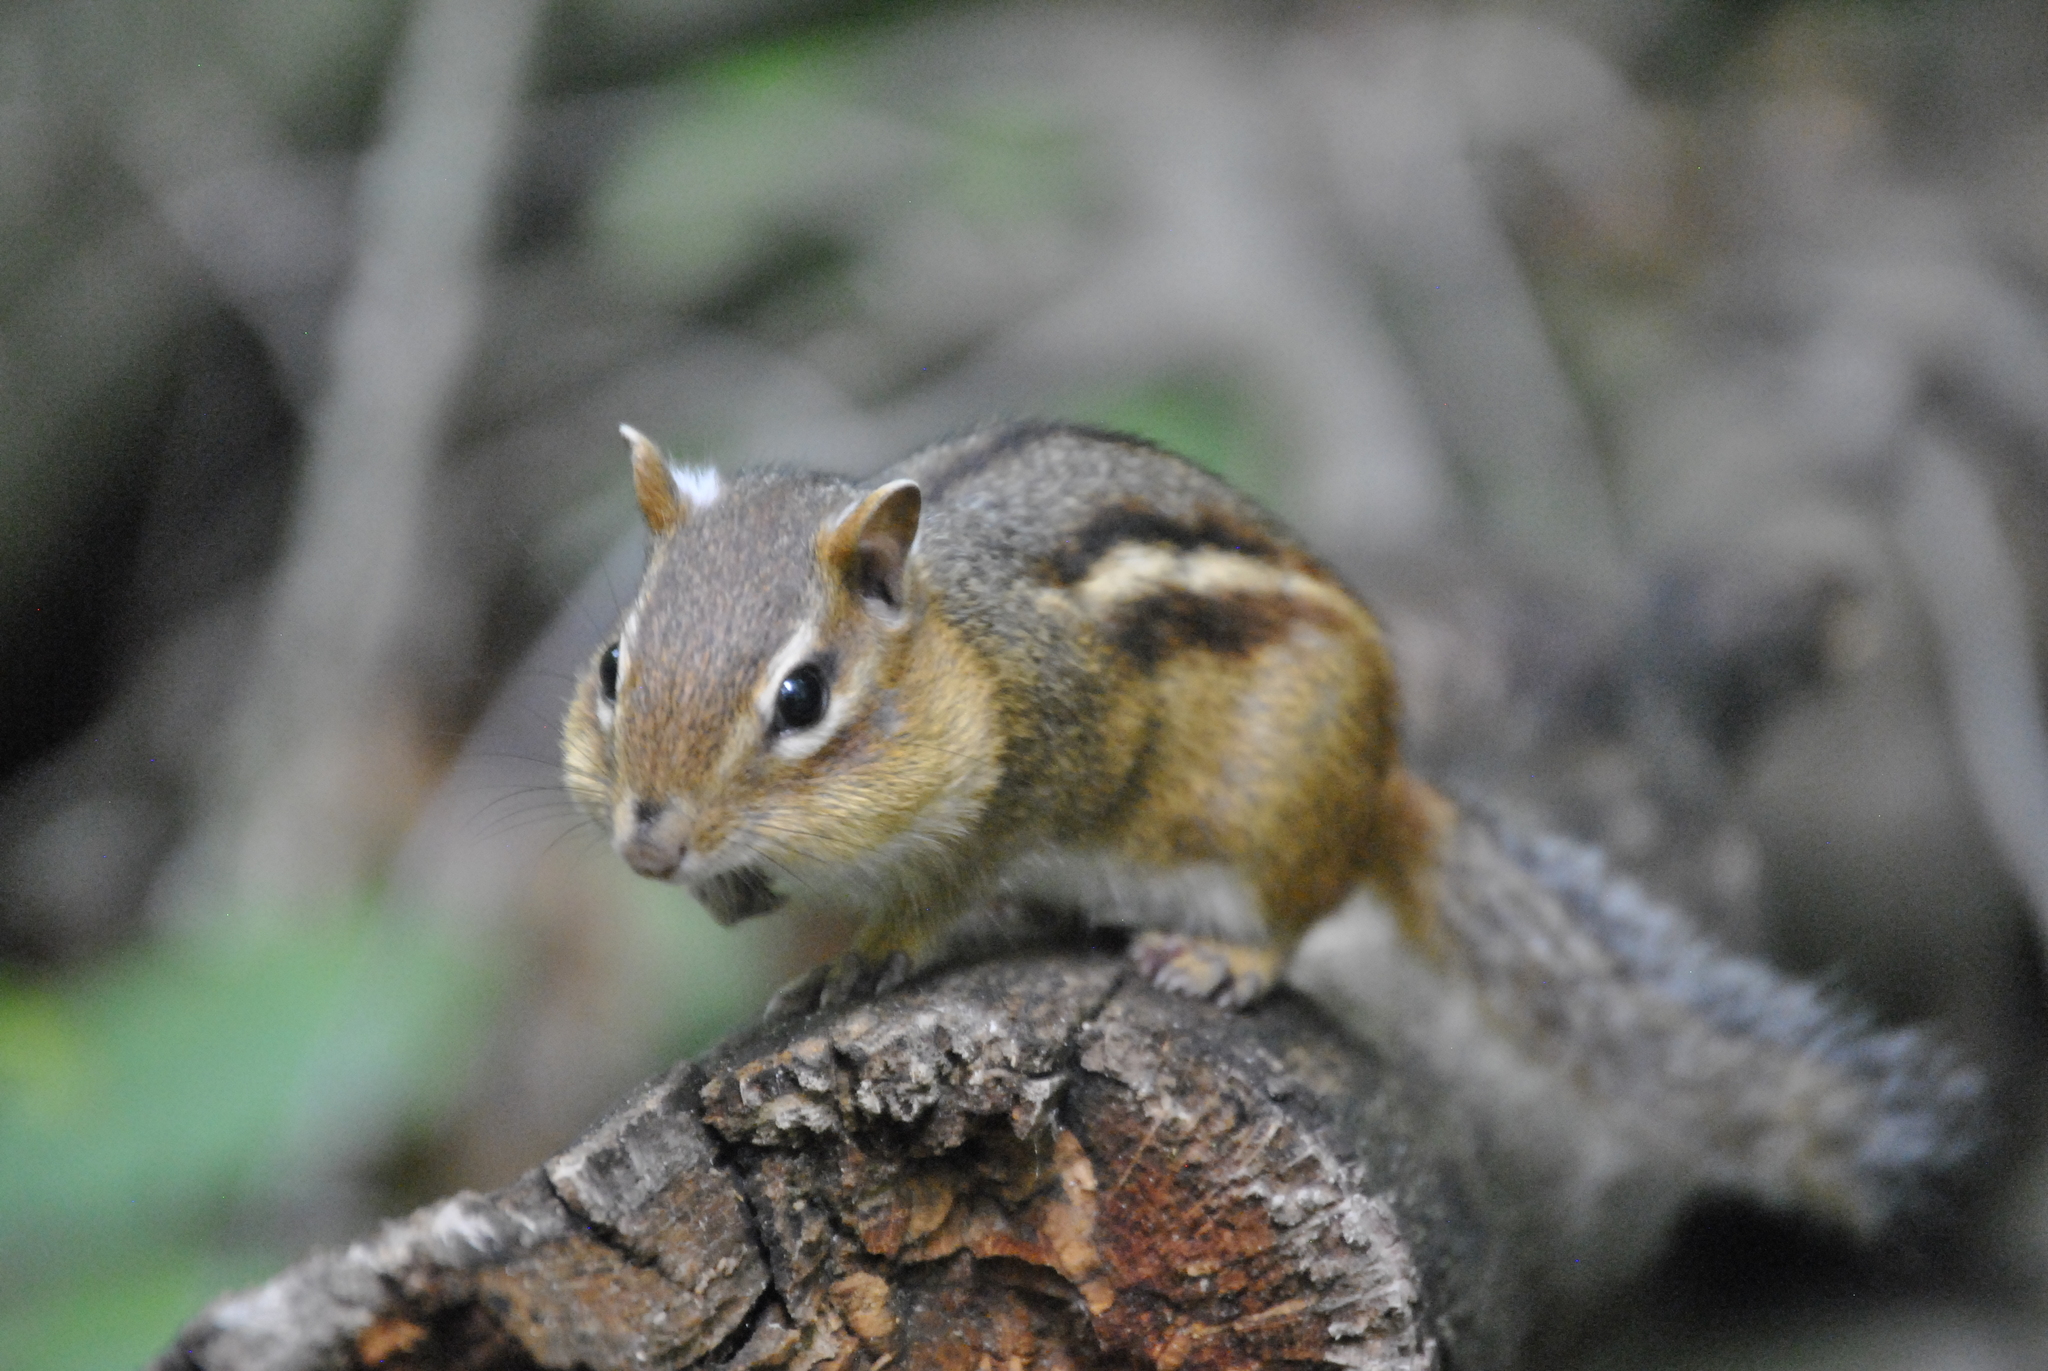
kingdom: Animalia
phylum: Chordata
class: Mammalia
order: Rodentia
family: Sciuridae
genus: Tamias
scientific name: Tamias striatus
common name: Eastern chipmunk
